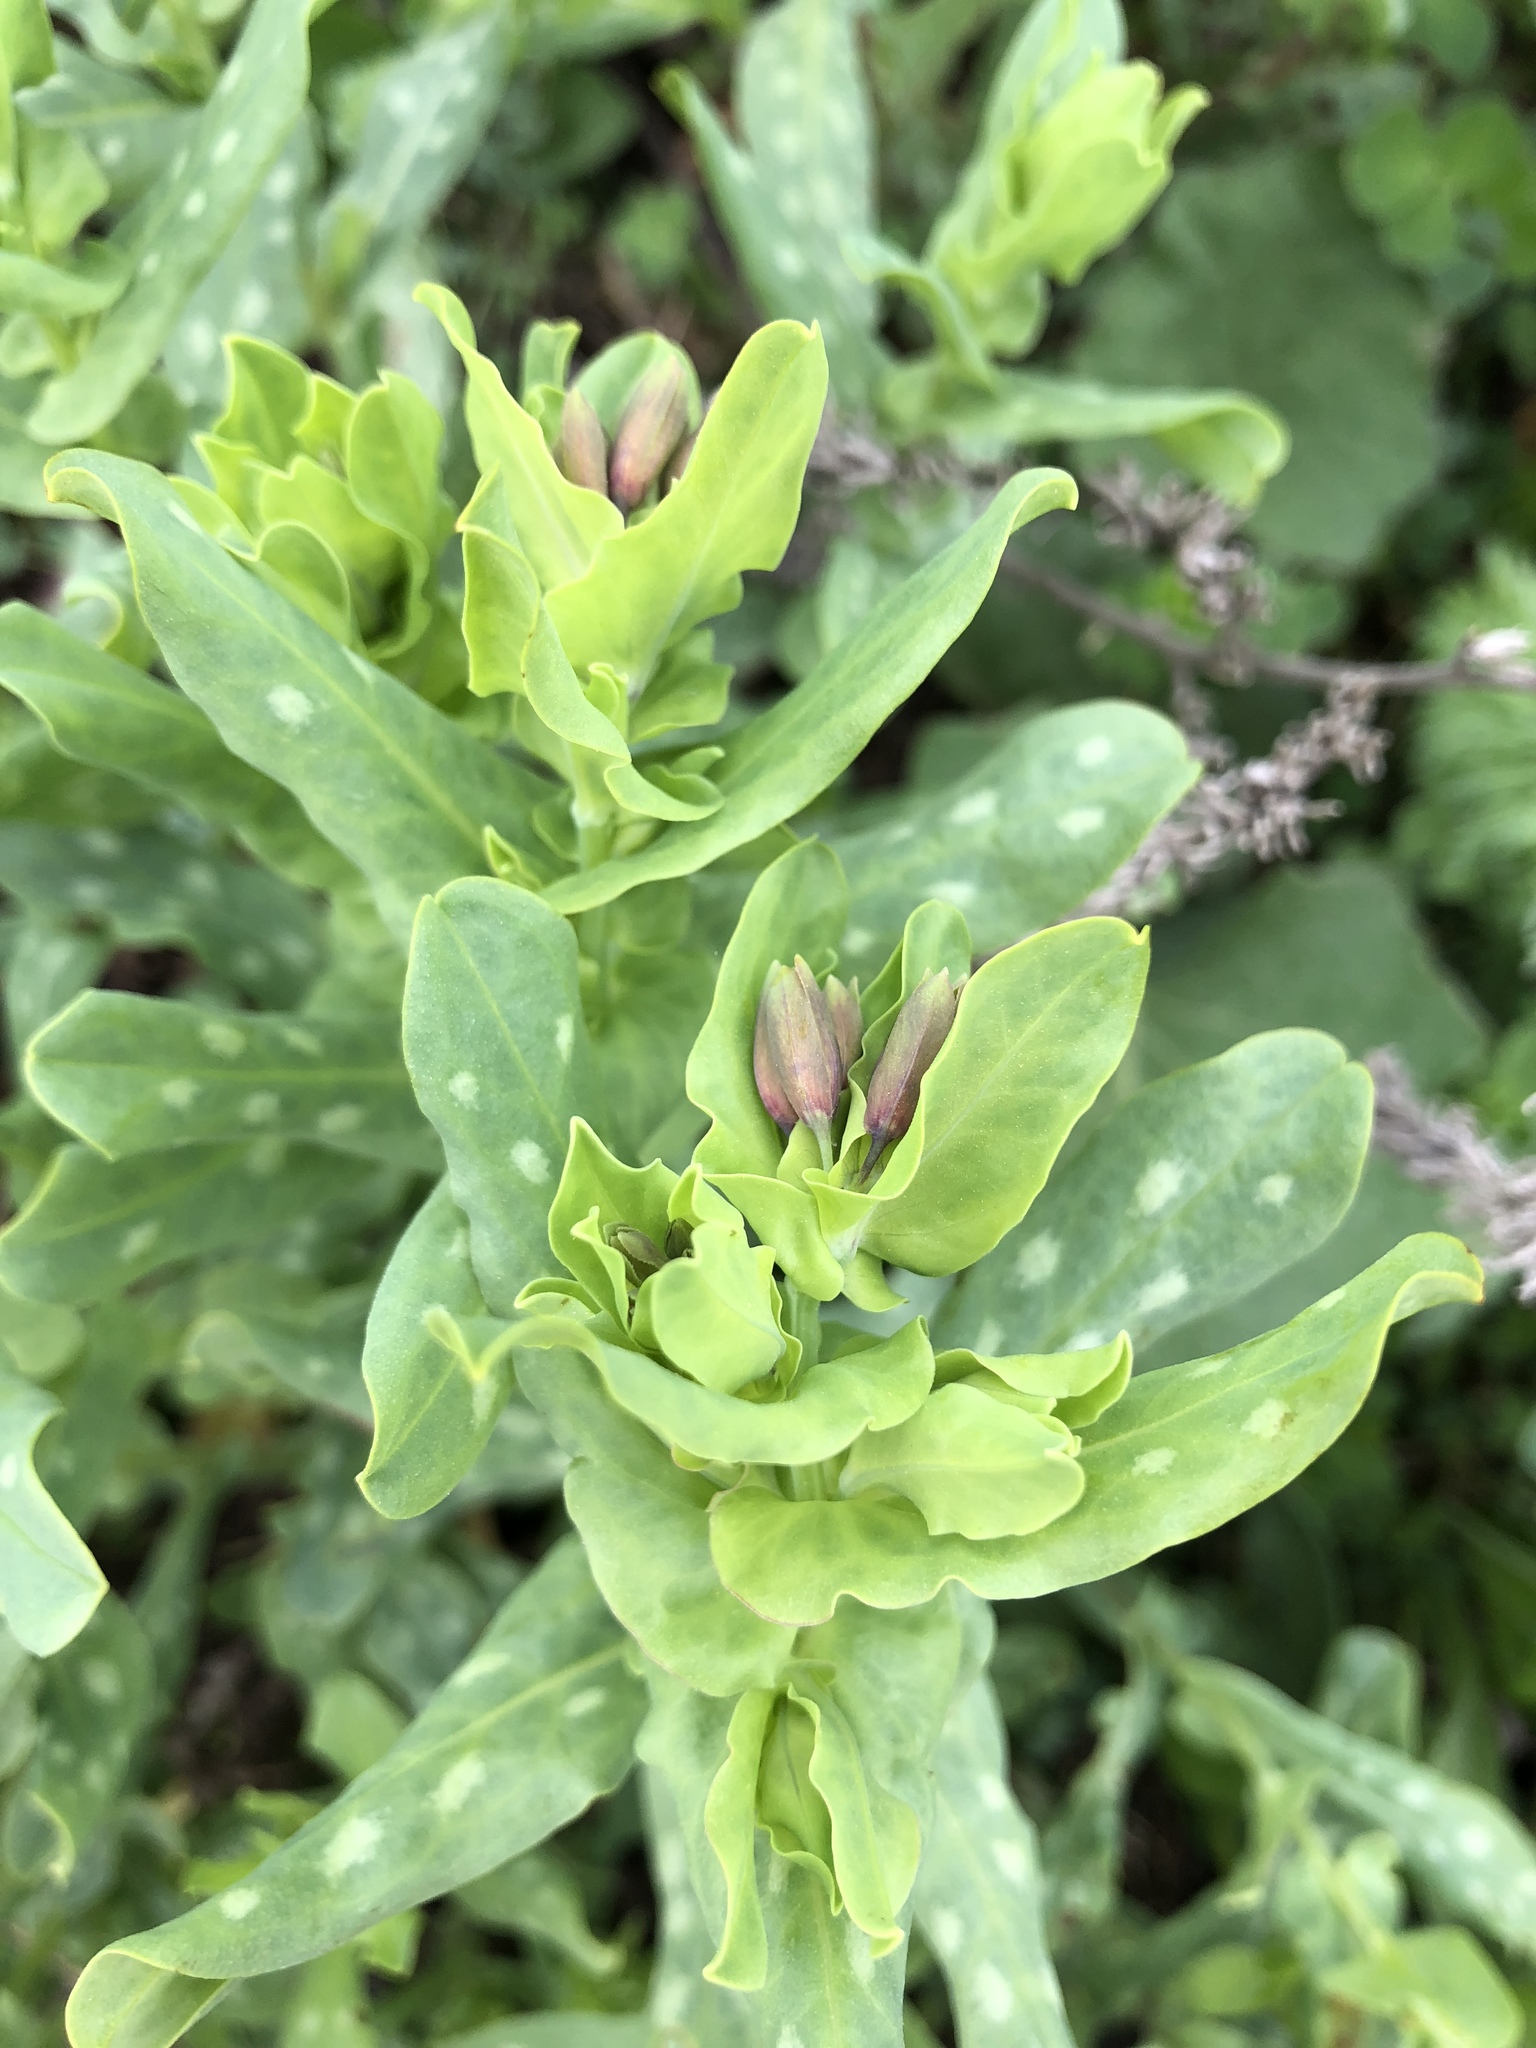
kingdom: Plantae
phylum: Tracheophyta
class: Magnoliopsida
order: Boraginales
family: Boraginaceae
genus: Cerinthe
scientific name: Cerinthe minor
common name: Lesser honeywort
